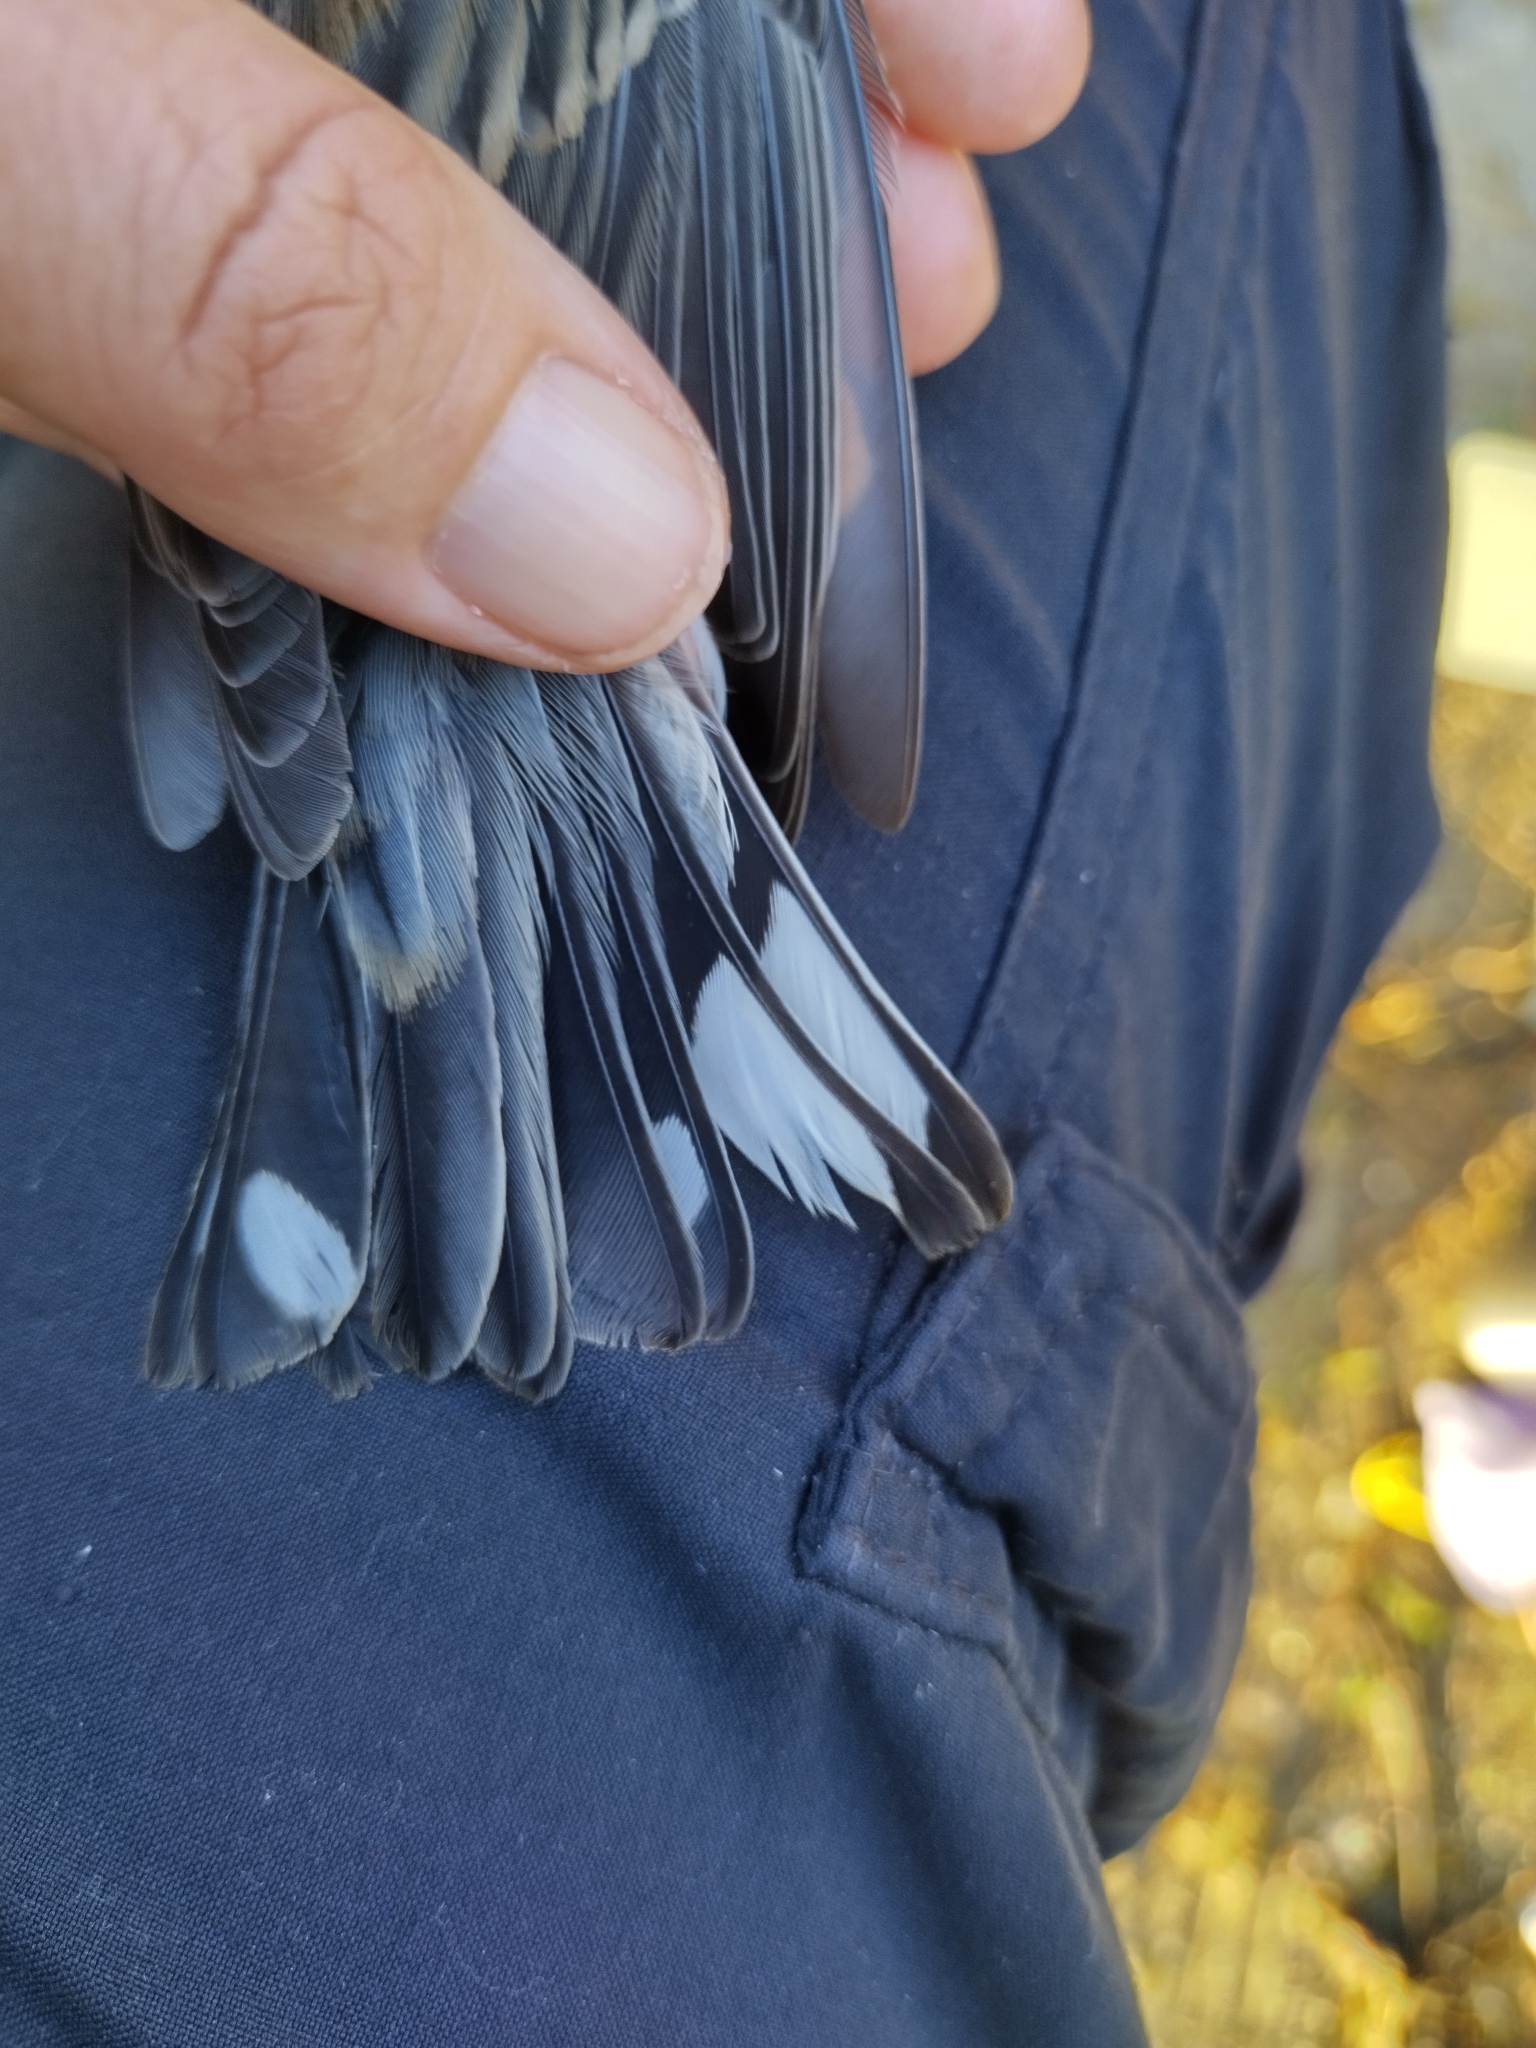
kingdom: Animalia
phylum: Chordata
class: Aves
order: Passeriformes
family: Parulidae
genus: Setophaga
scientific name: Setophaga coronata
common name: Myrtle warbler
